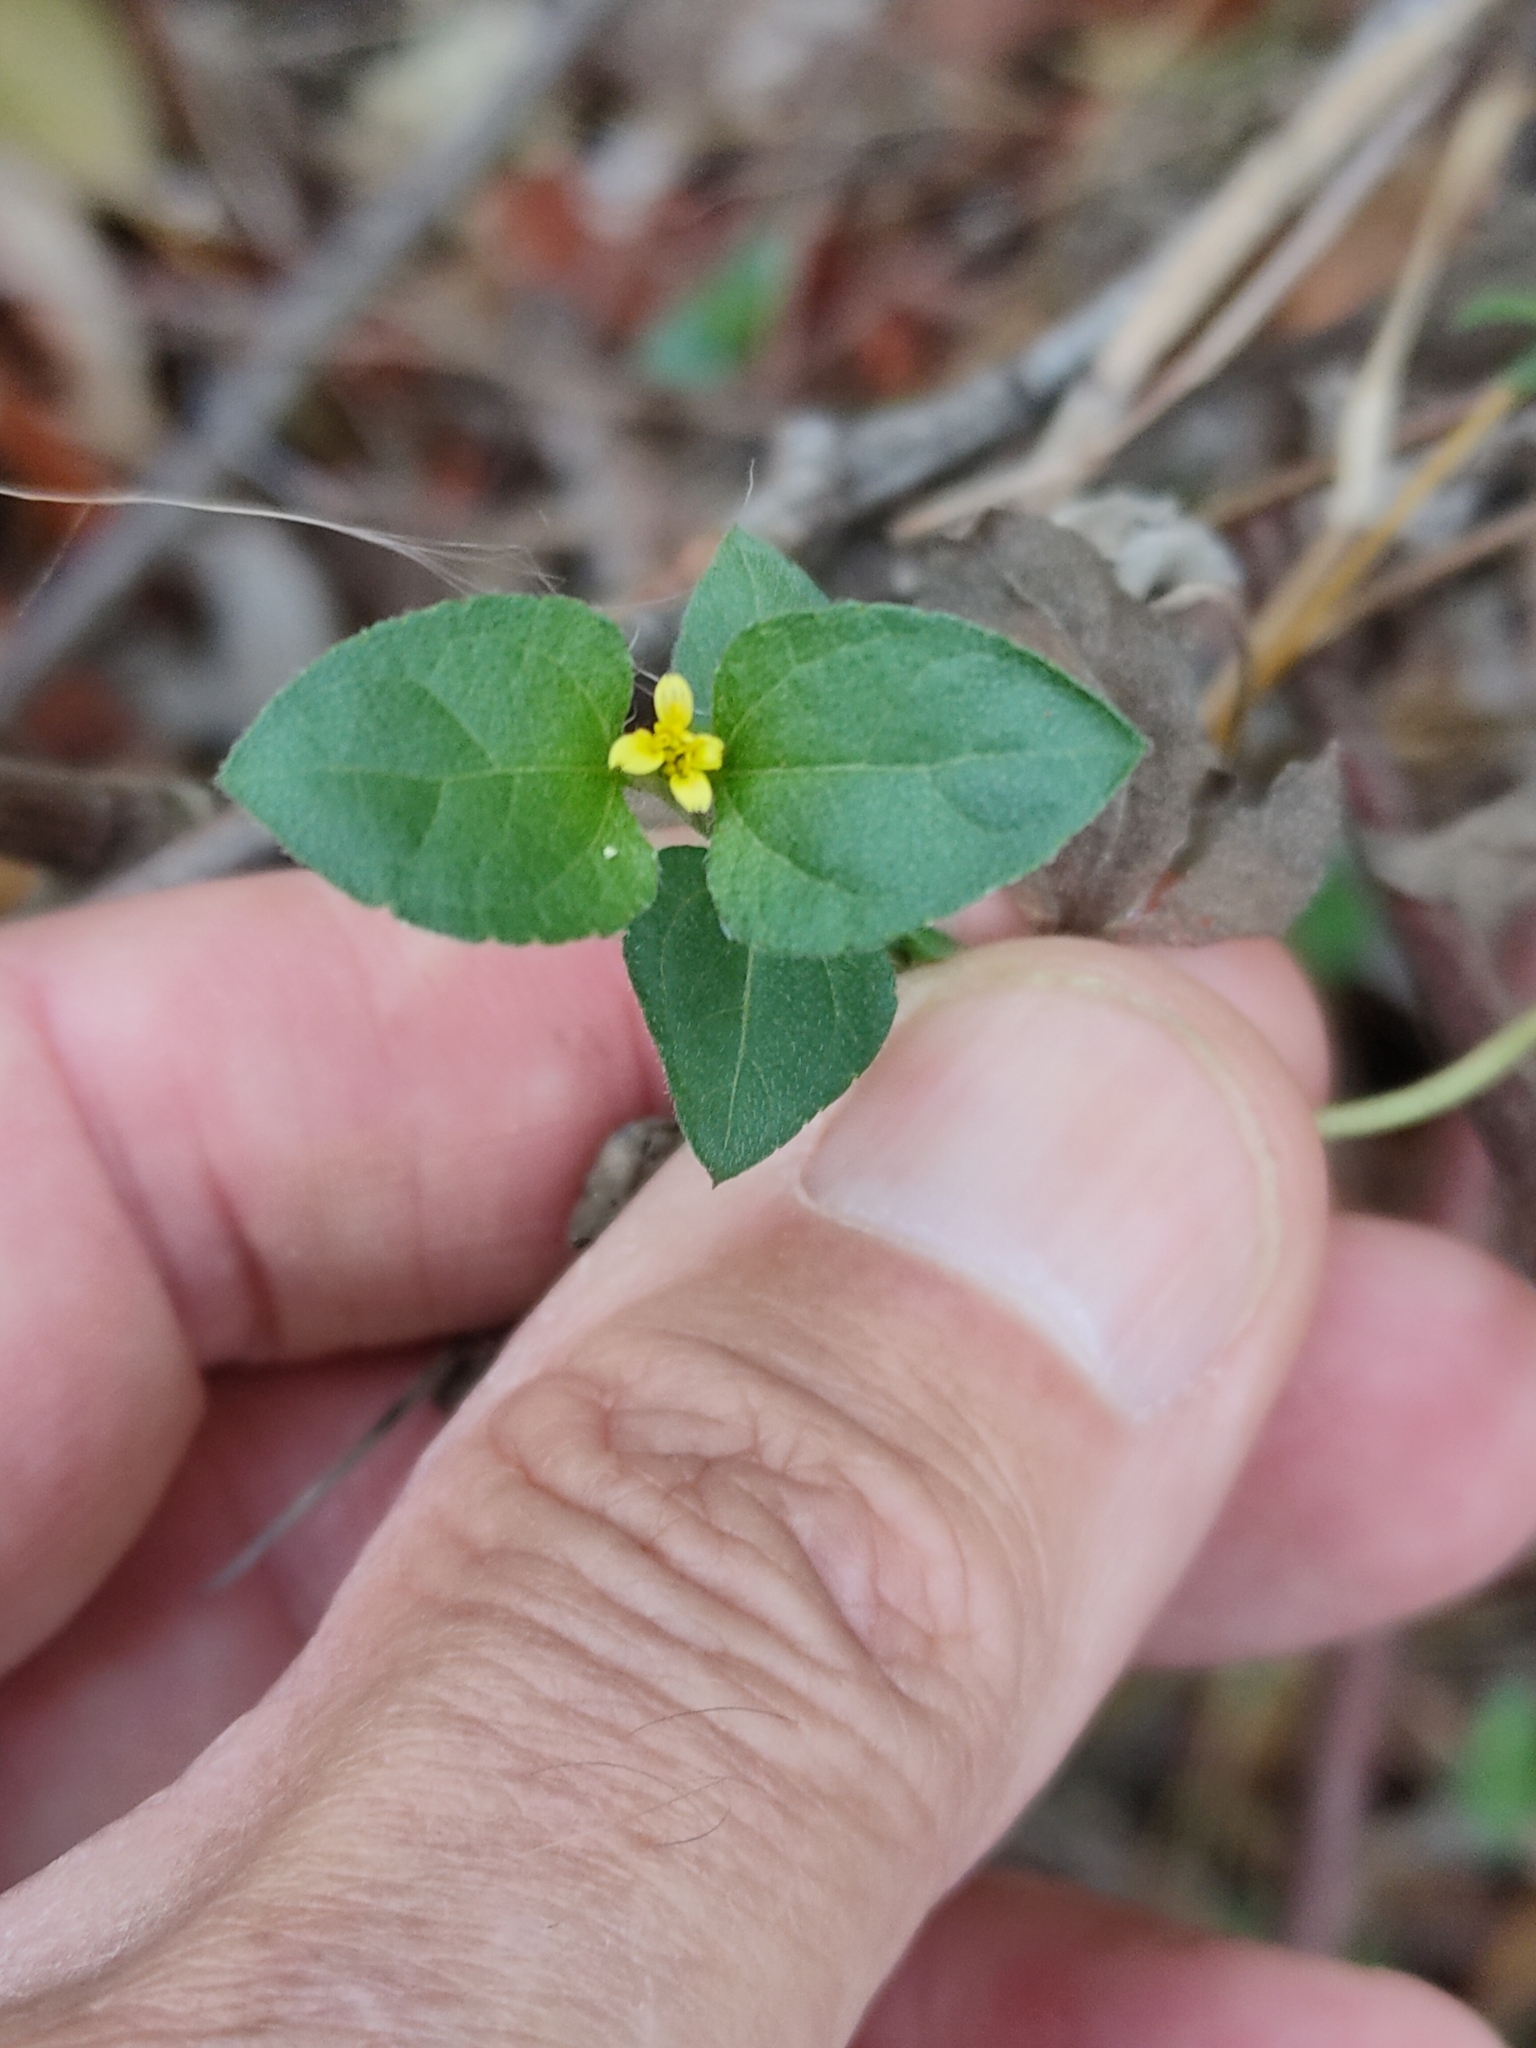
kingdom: Plantae
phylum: Tracheophyta
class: Magnoliopsida
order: Asterales
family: Asteraceae
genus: Calyptocarpus
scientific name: Calyptocarpus vialis
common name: Straggler daisy
